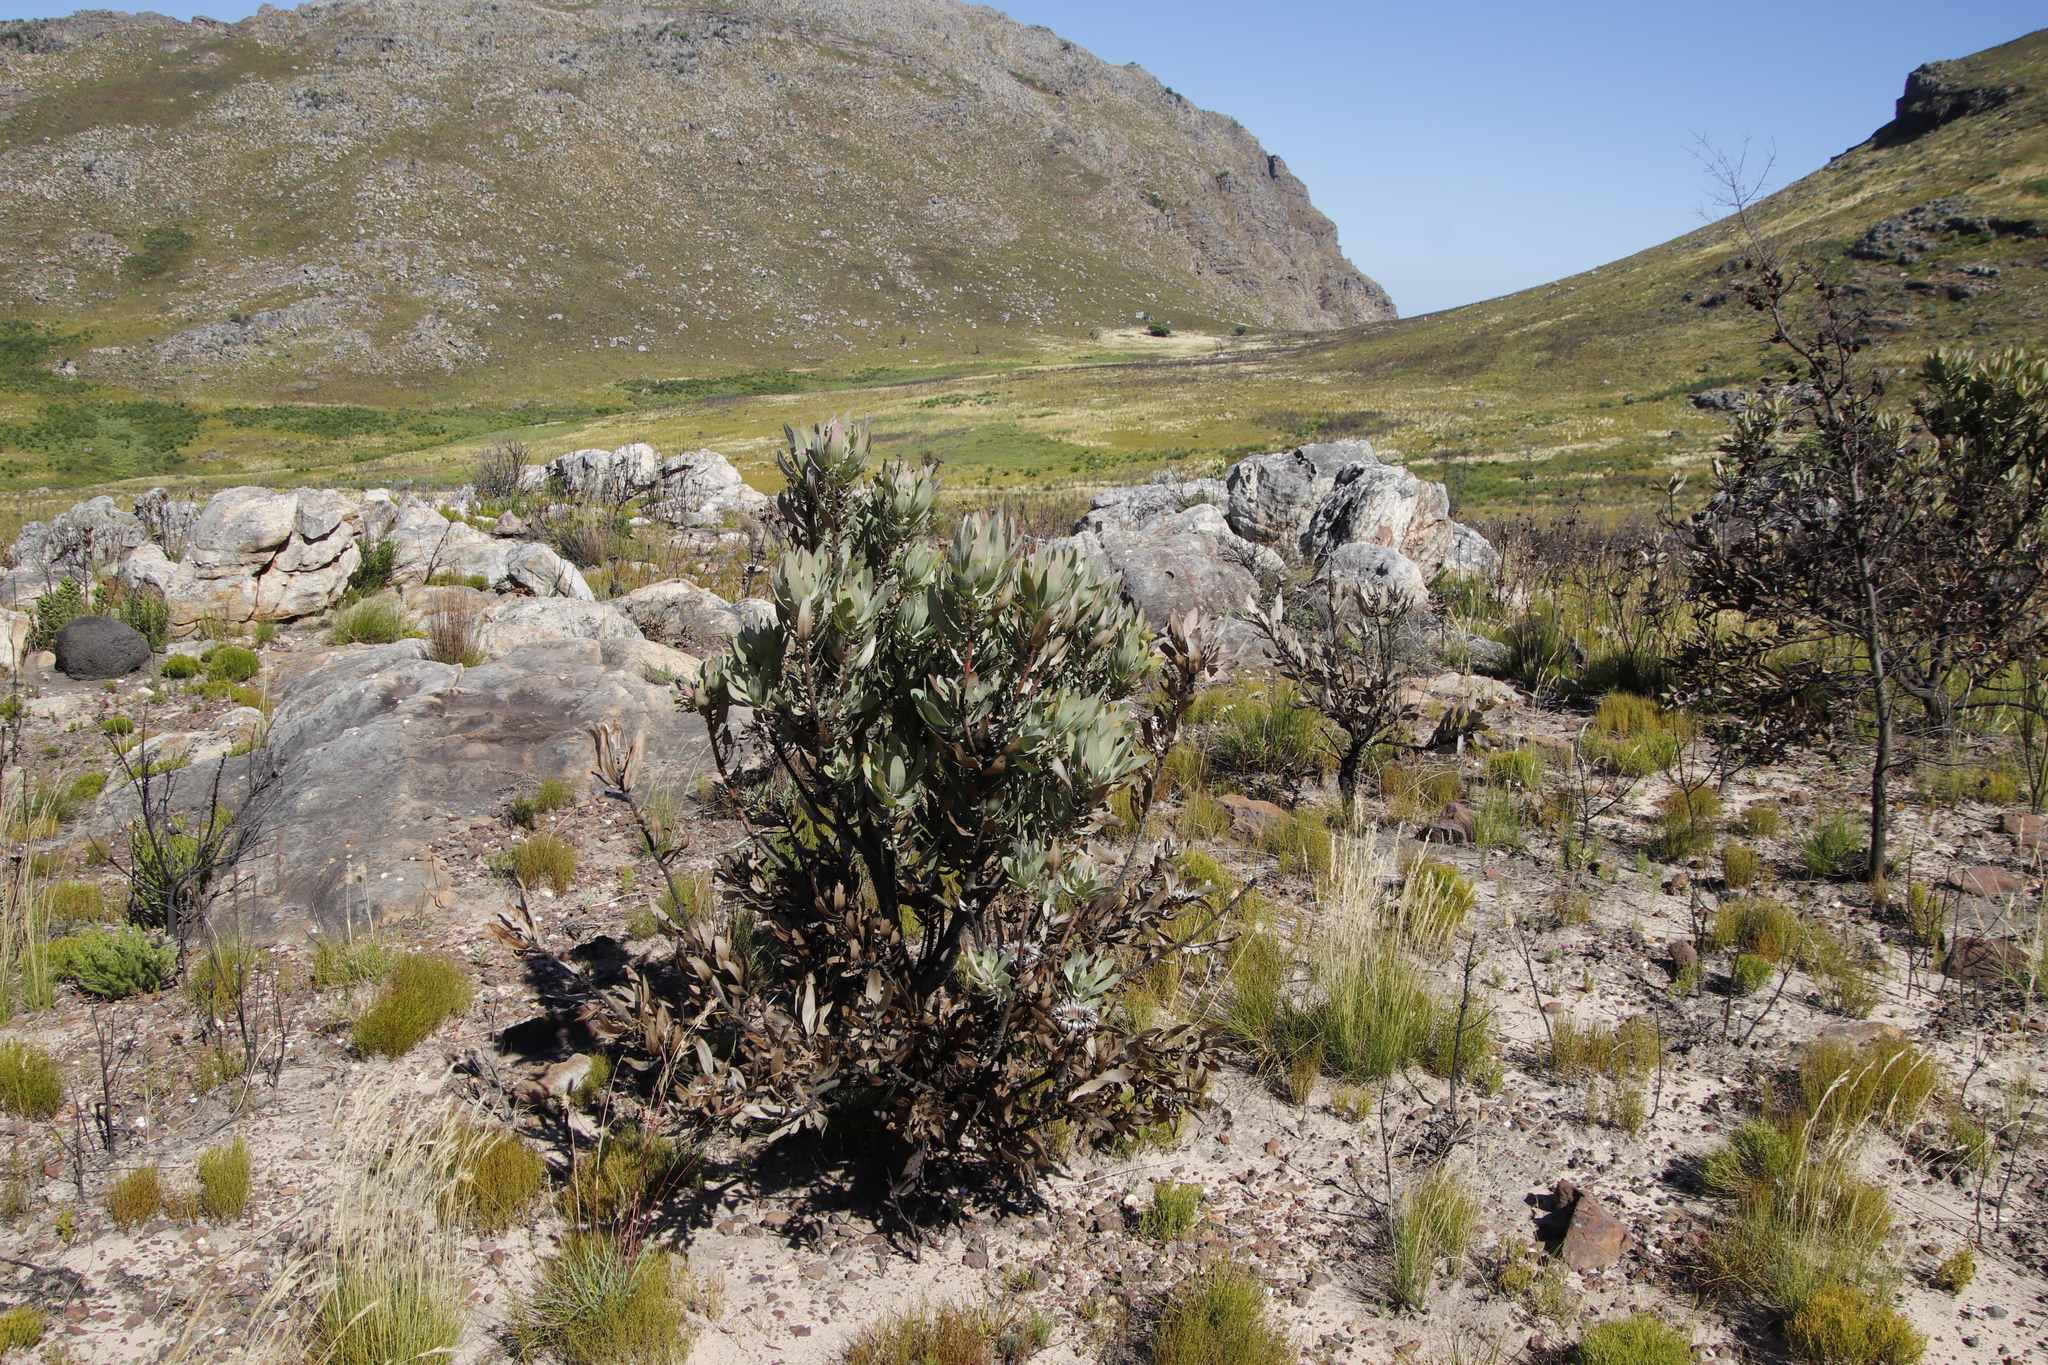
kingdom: Plantae
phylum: Tracheophyta
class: Magnoliopsida
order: Proteales
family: Proteaceae
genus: Protea
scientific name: Protea laurifolia
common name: Grey-leaf sugarbsh
